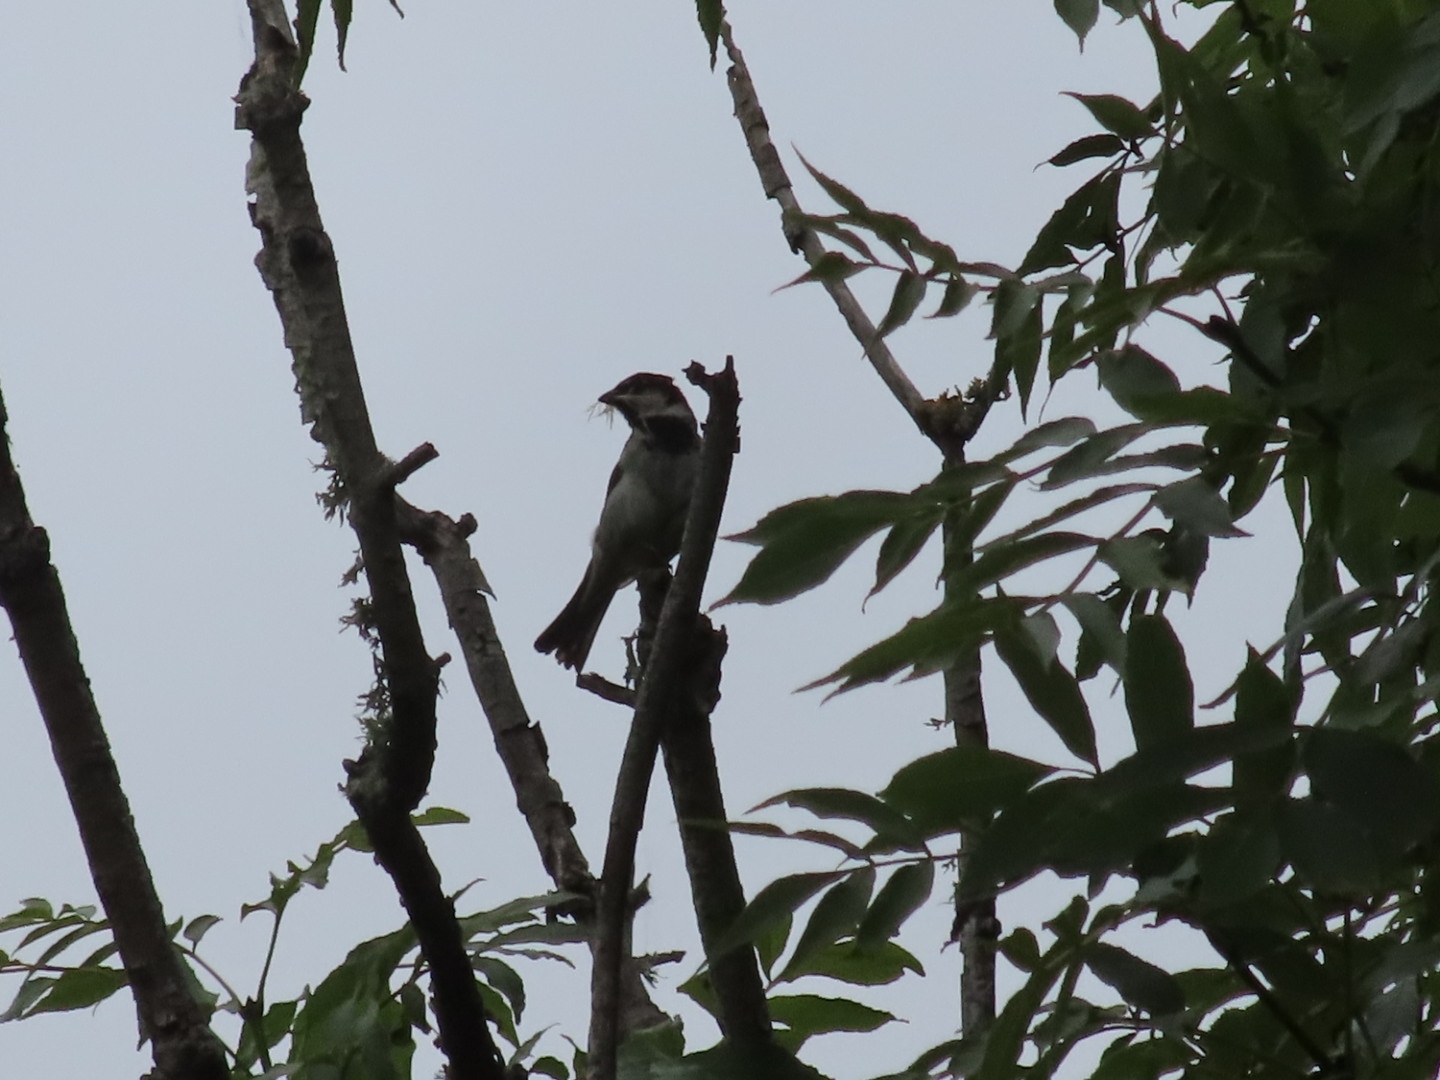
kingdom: Animalia
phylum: Chordata
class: Aves
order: Passeriformes
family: Passeridae
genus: Passer
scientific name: Passer domesticus
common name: House sparrow
